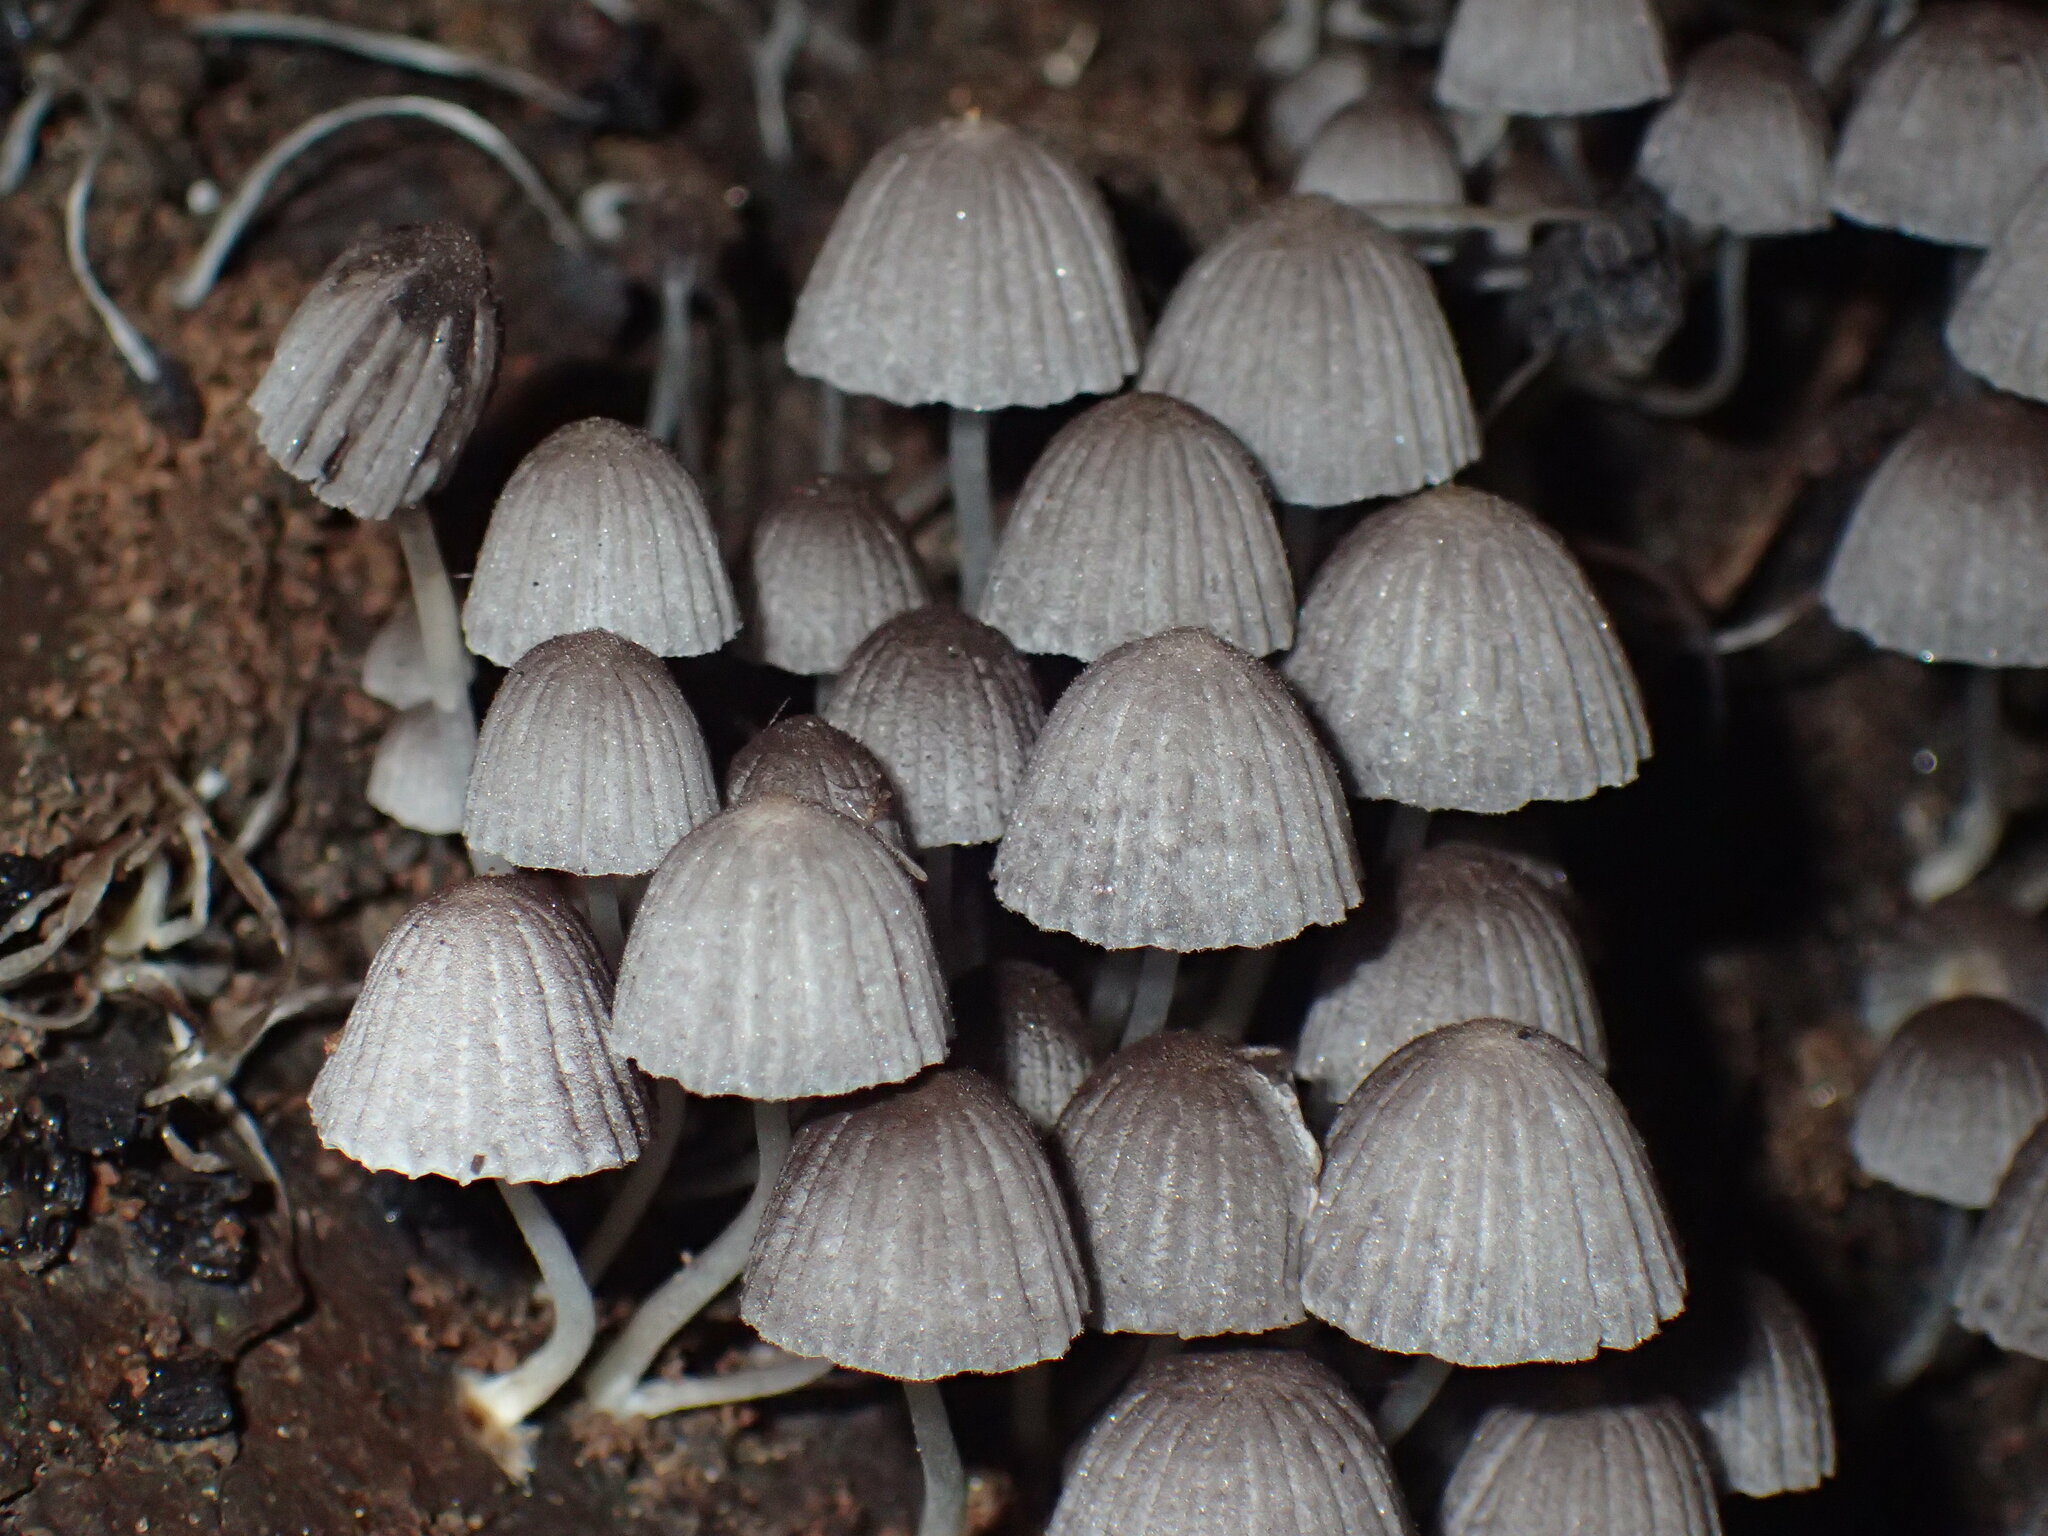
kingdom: Fungi
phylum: Basidiomycota
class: Agaricomycetes
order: Agaricales
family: Psathyrellaceae
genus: Coprinellus
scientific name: Coprinellus disseminatus
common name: Fairies' bonnets
